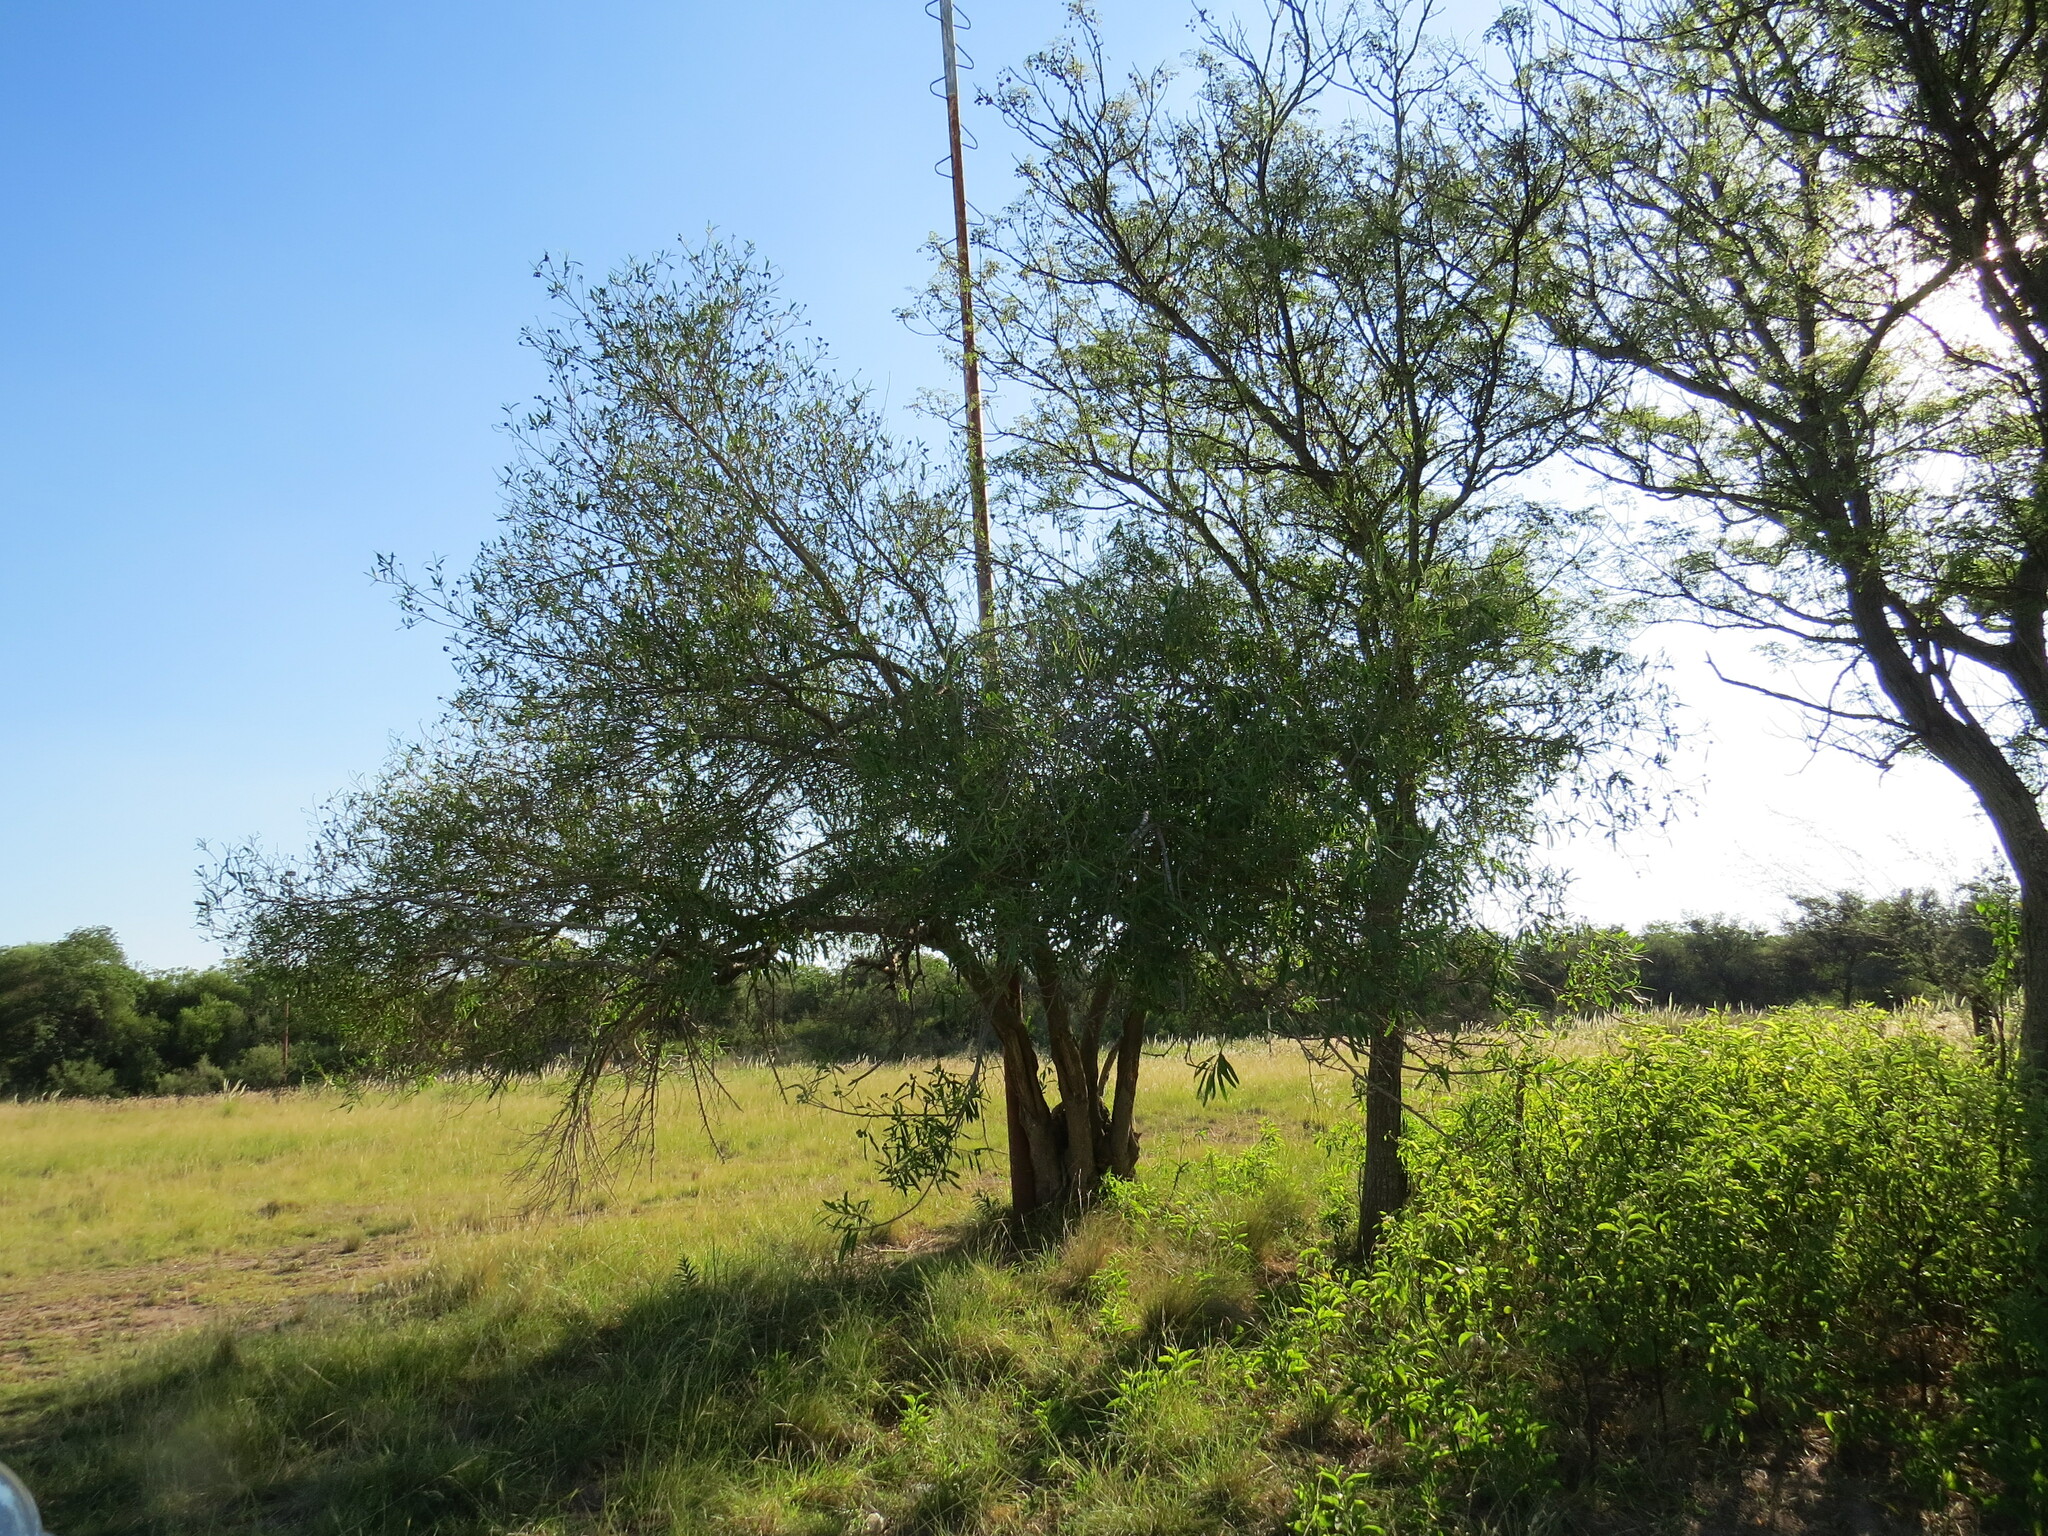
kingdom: Plantae
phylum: Tracheophyta
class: Magnoliopsida
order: Malpighiales
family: Euphorbiaceae
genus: Sapium
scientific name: Sapium haematospermum
